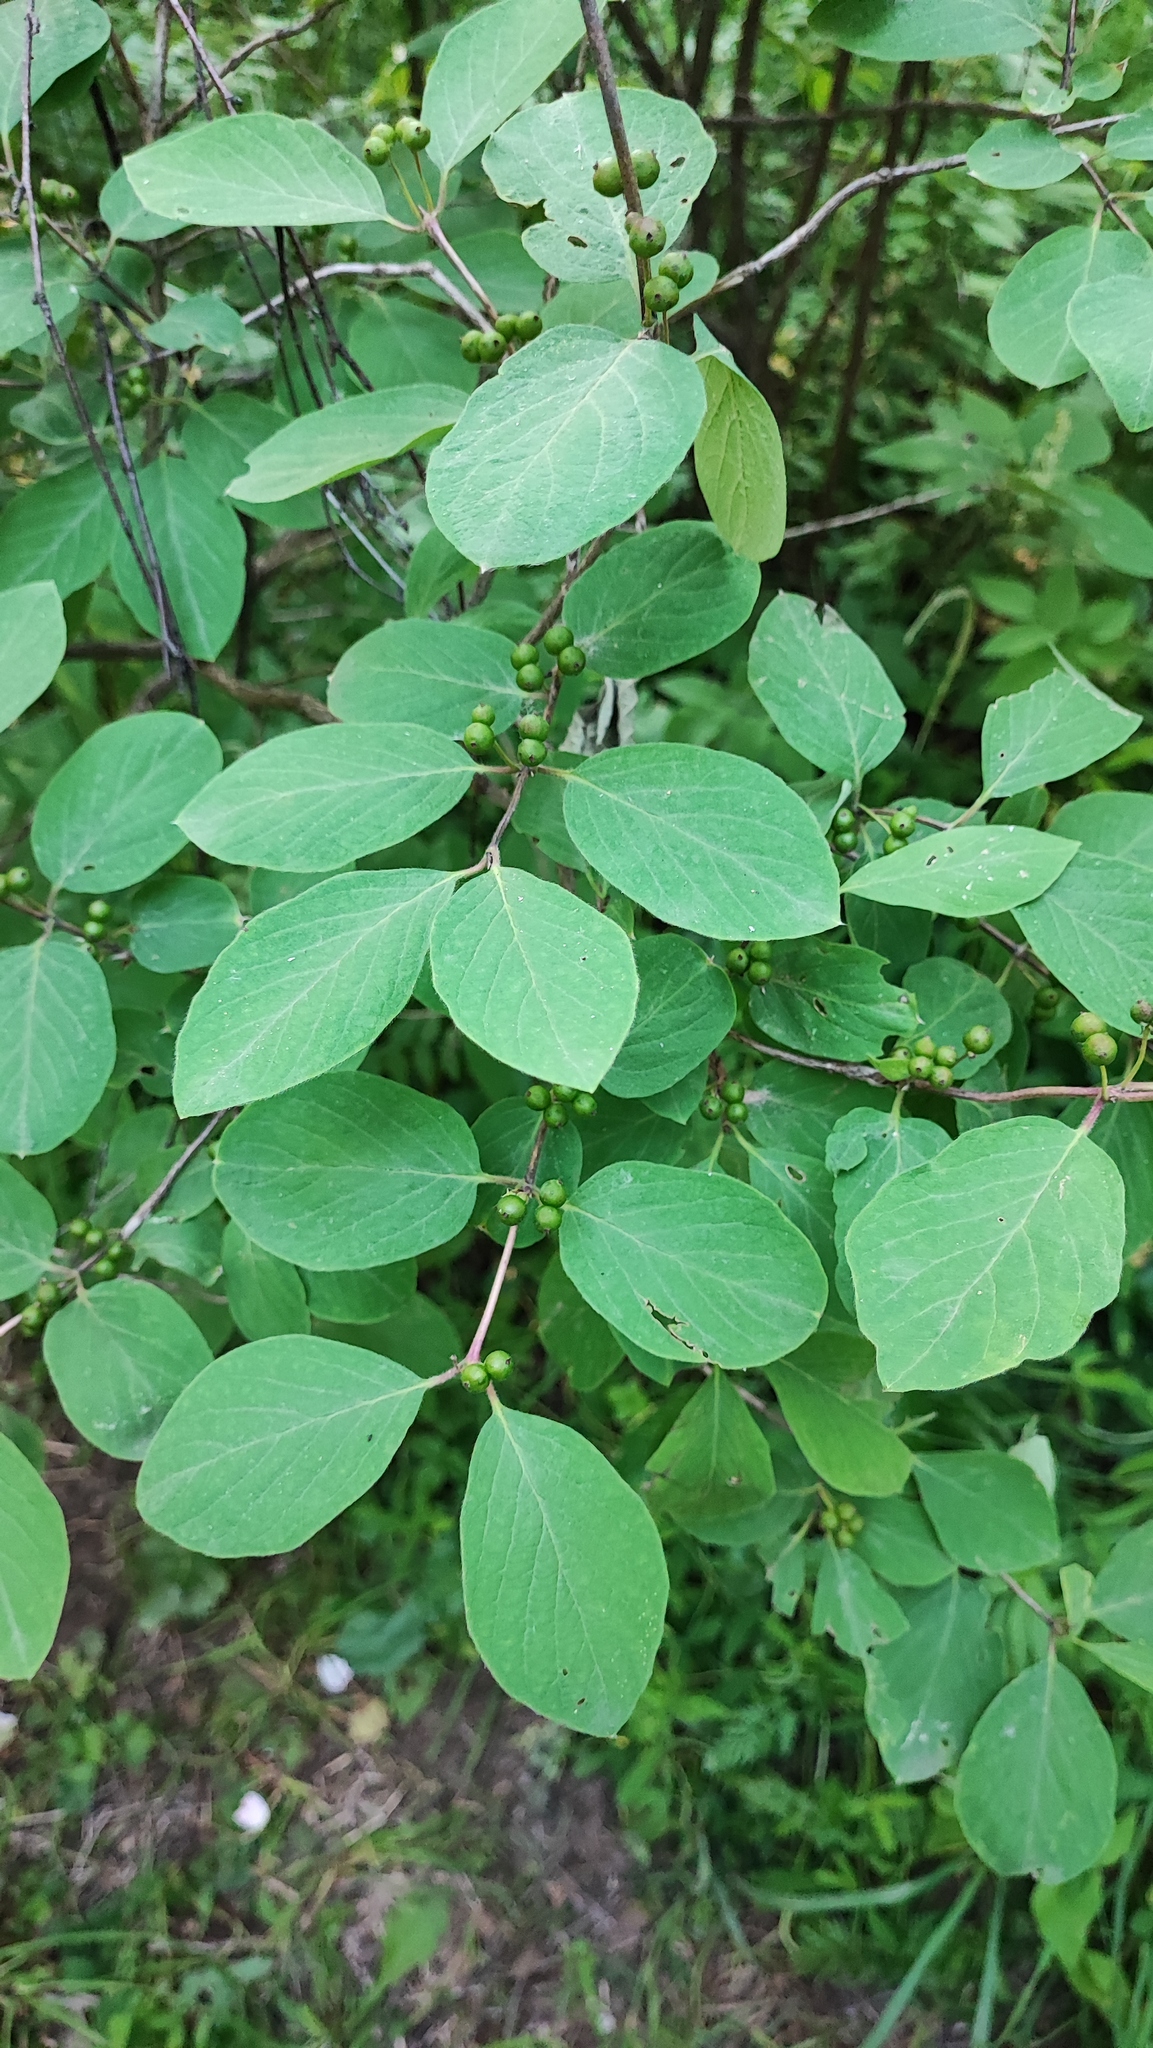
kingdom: Plantae
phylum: Tracheophyta
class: Magnoliopsida
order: Dipsacales
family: Caprifoliaceae
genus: Lonicera
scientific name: Lonicera xylosteum
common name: Fly honeysuckle
